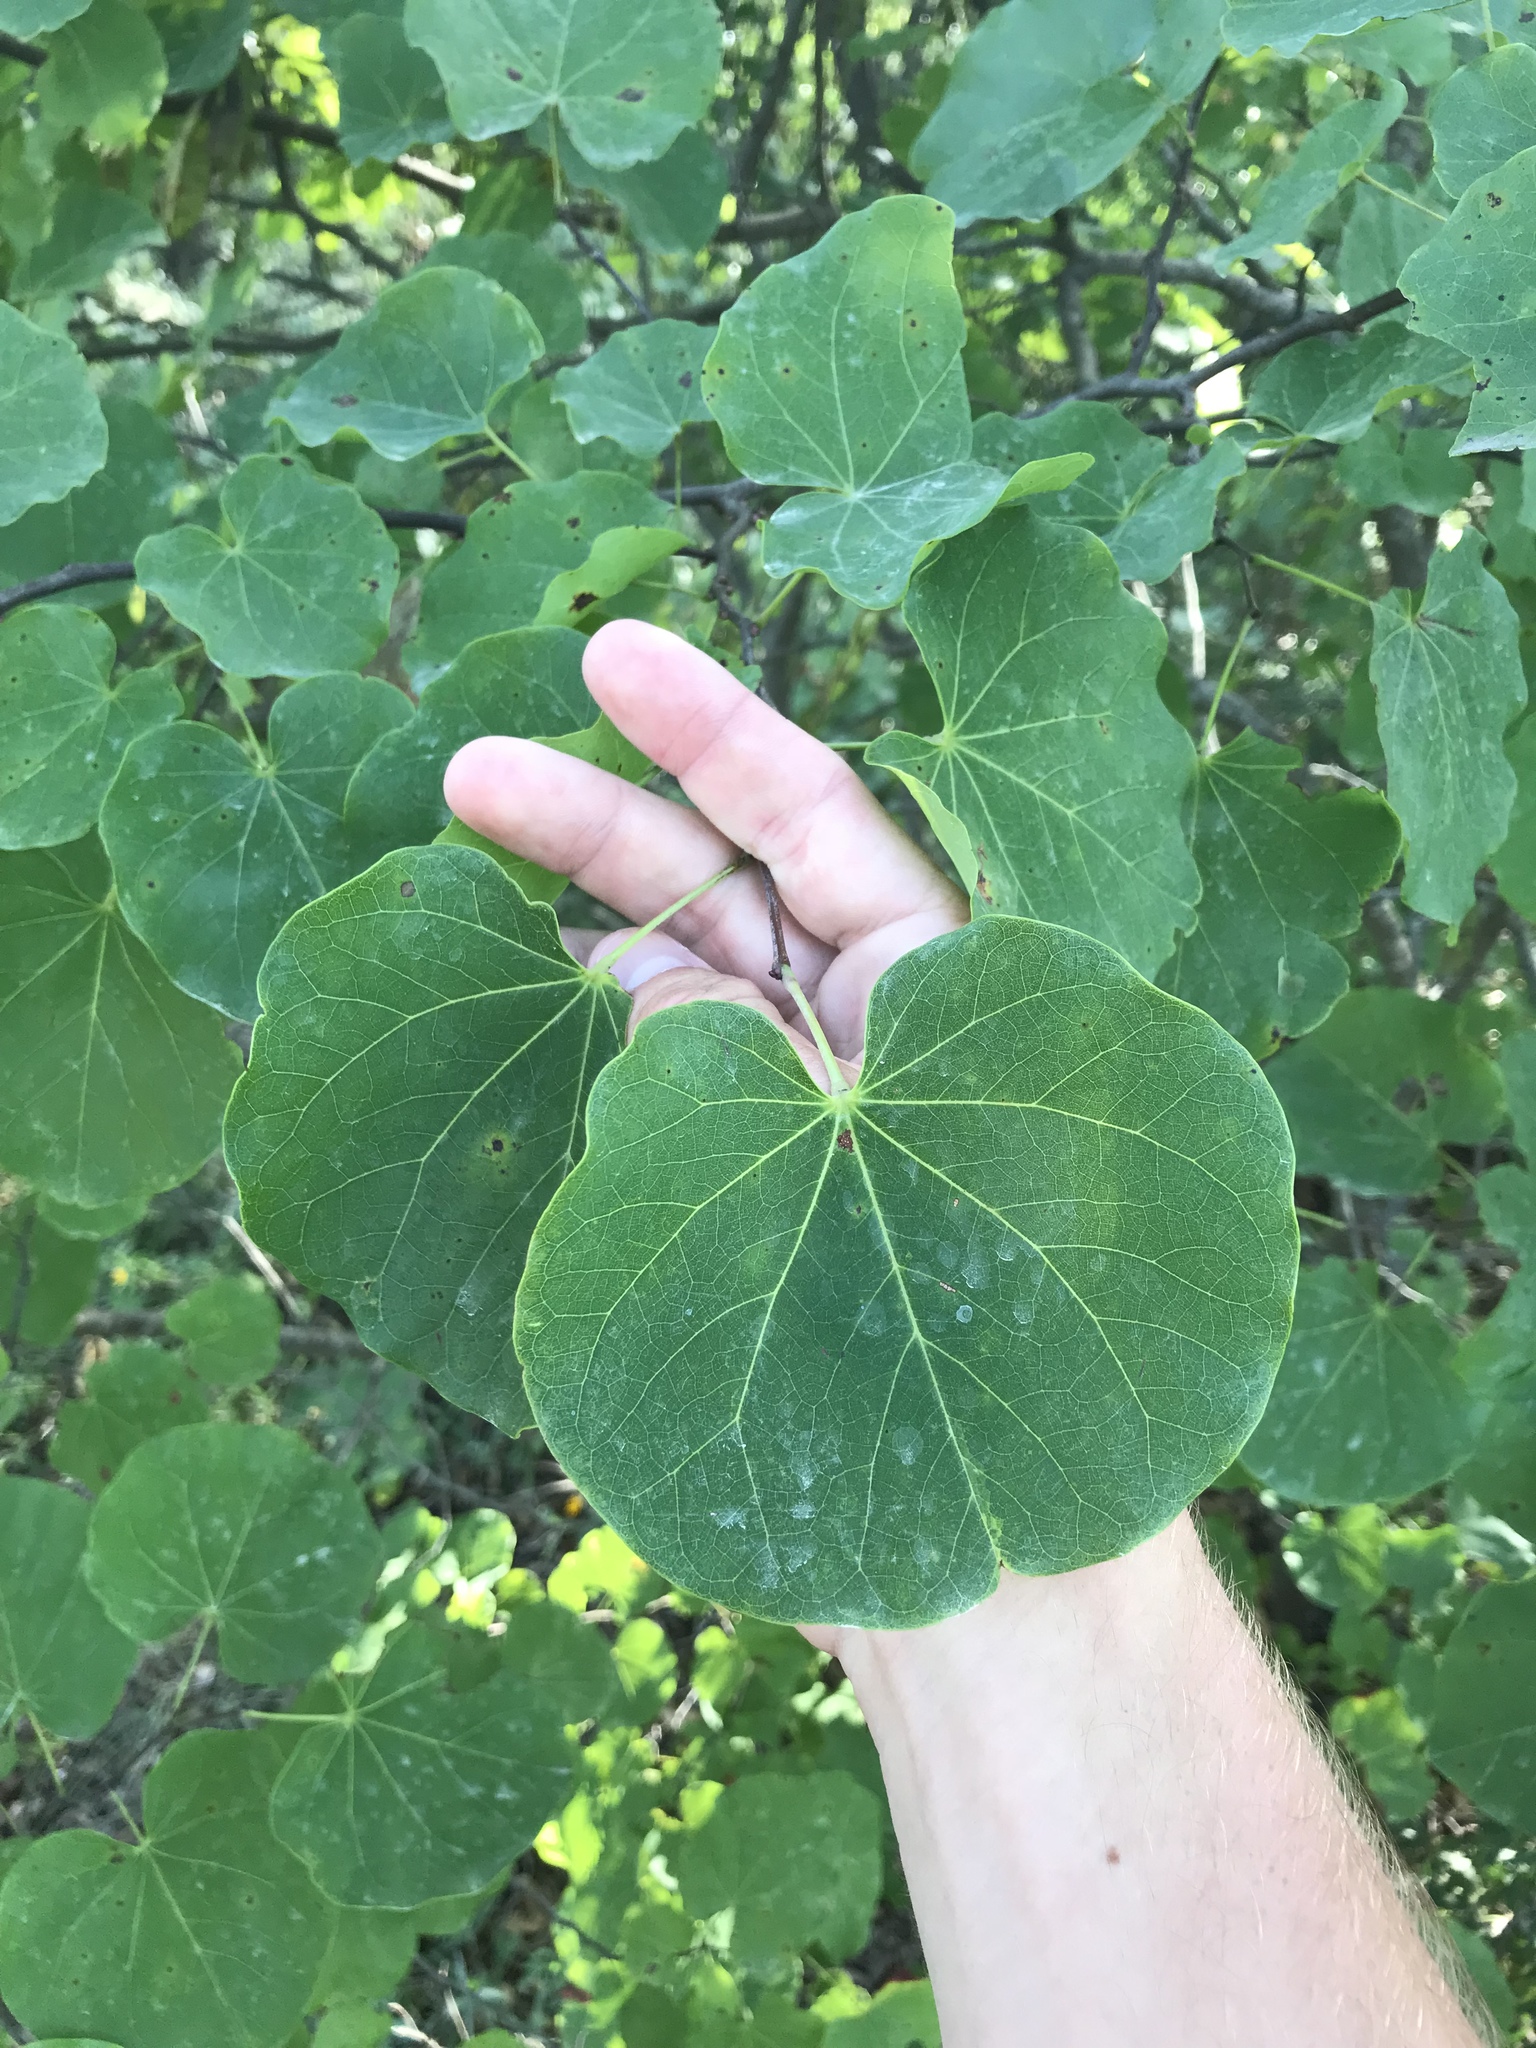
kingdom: Plantae
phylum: Tracheophyta
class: Magnoliopsida
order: Fabales
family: Fabaceae
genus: Cercis
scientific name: Cercis canadensis
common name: Eastern redbud
